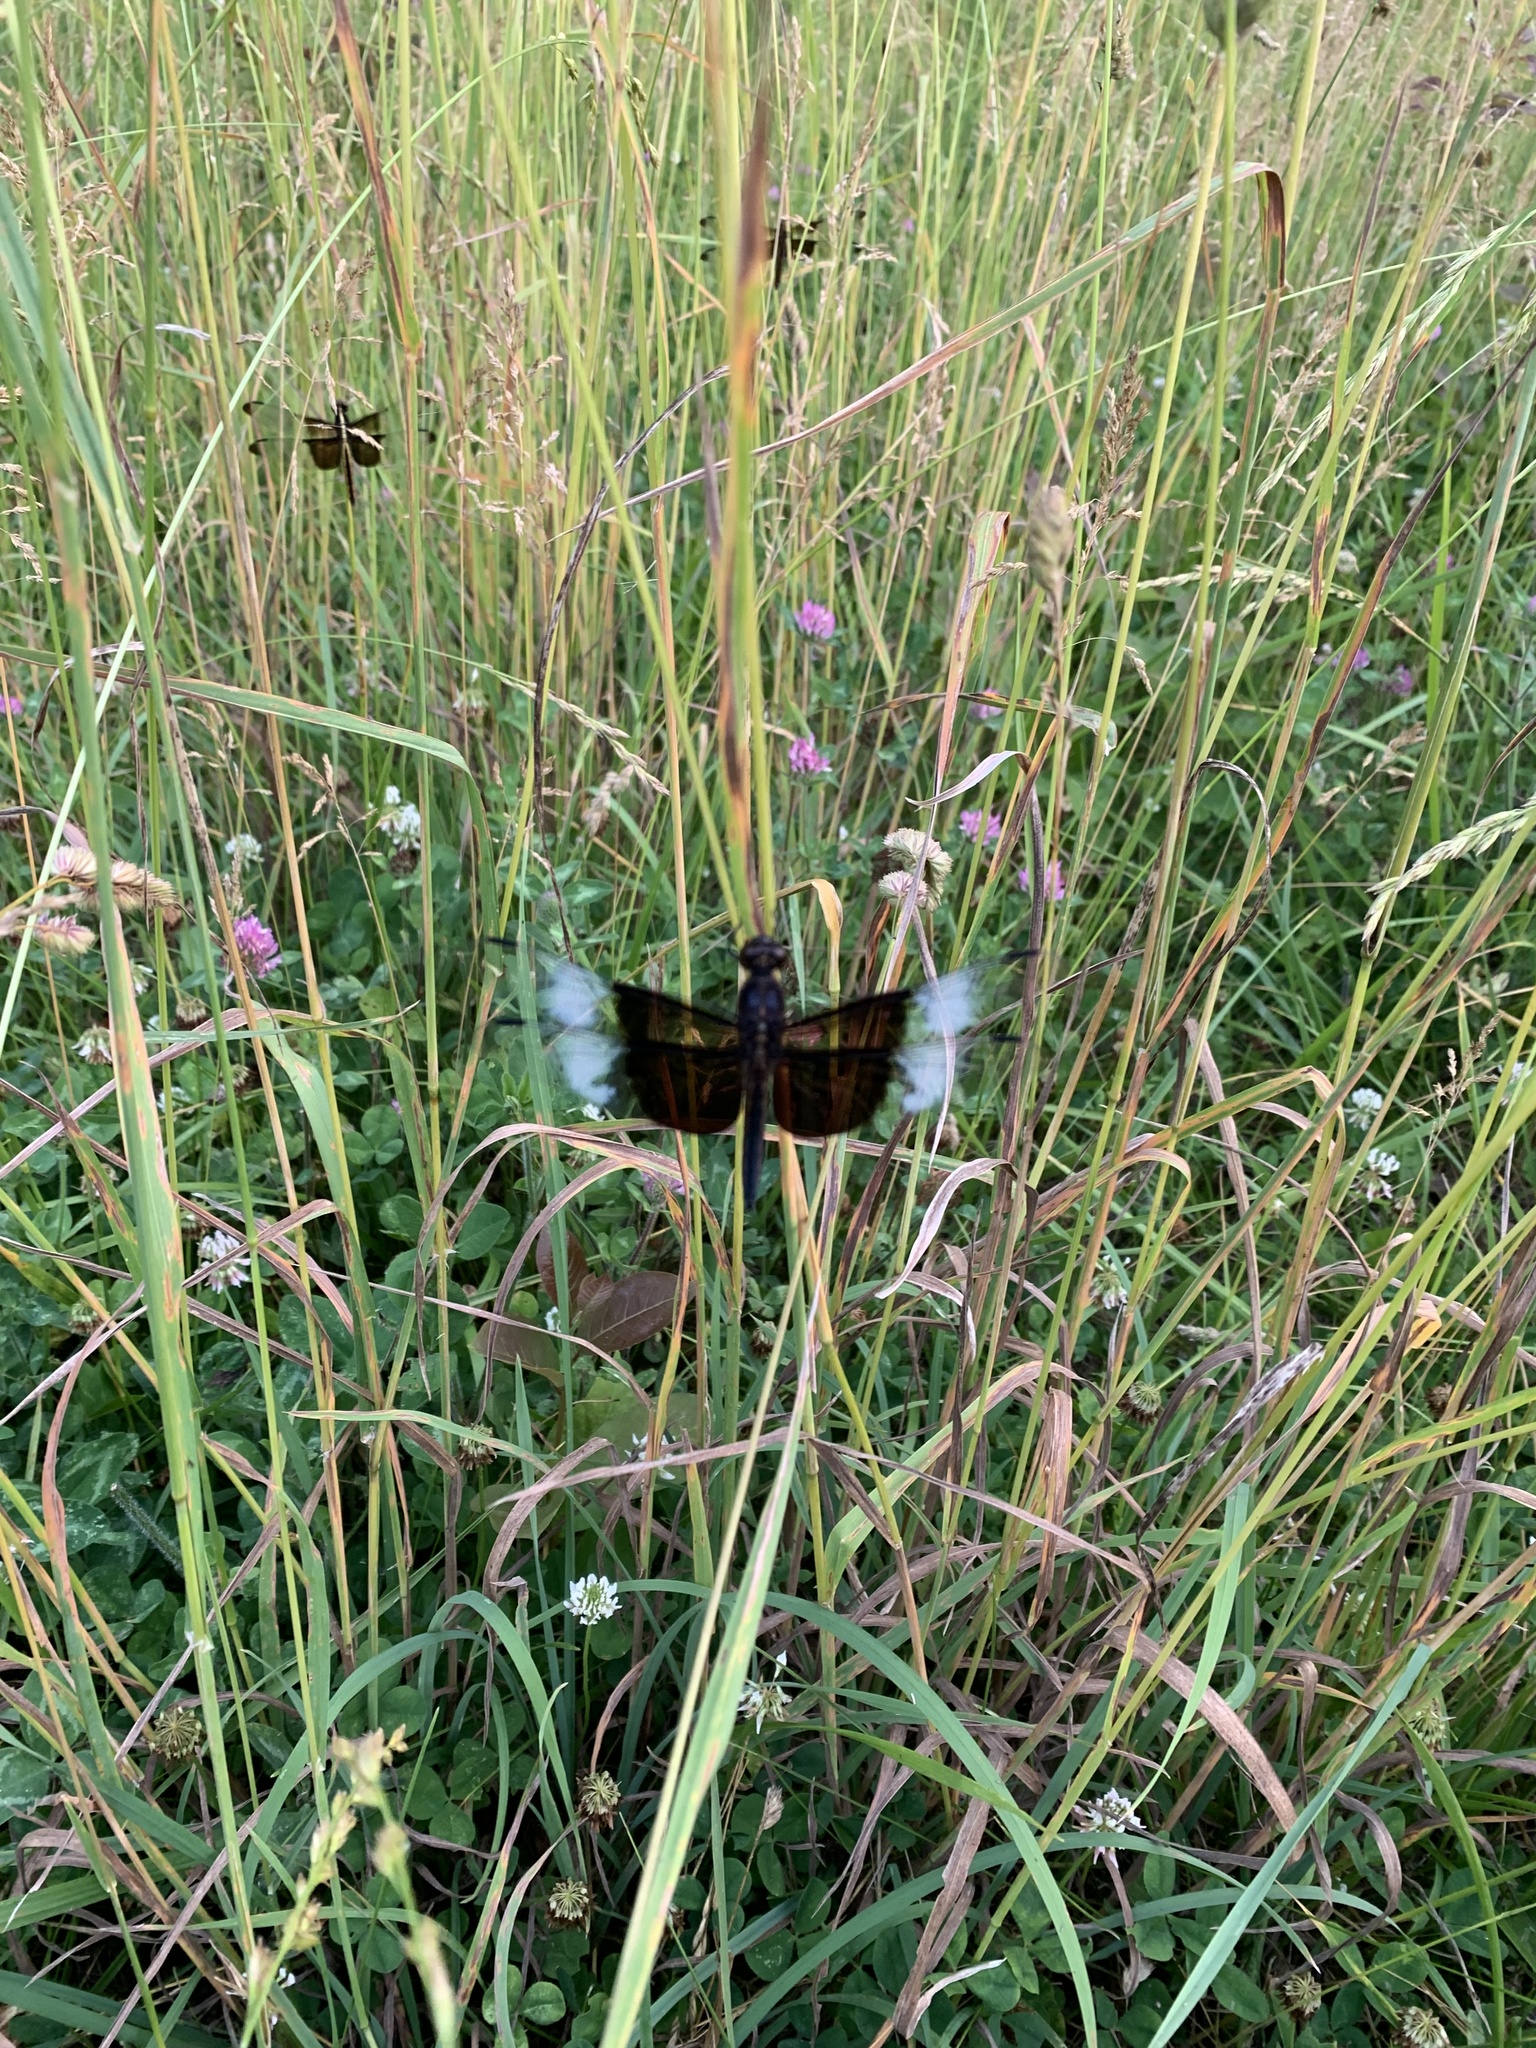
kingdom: Animalia
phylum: Arthropoda
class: Insecta
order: Odonata
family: Libellulidae
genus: Libellula
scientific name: Libellula luctuosa
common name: Widow skimmer
